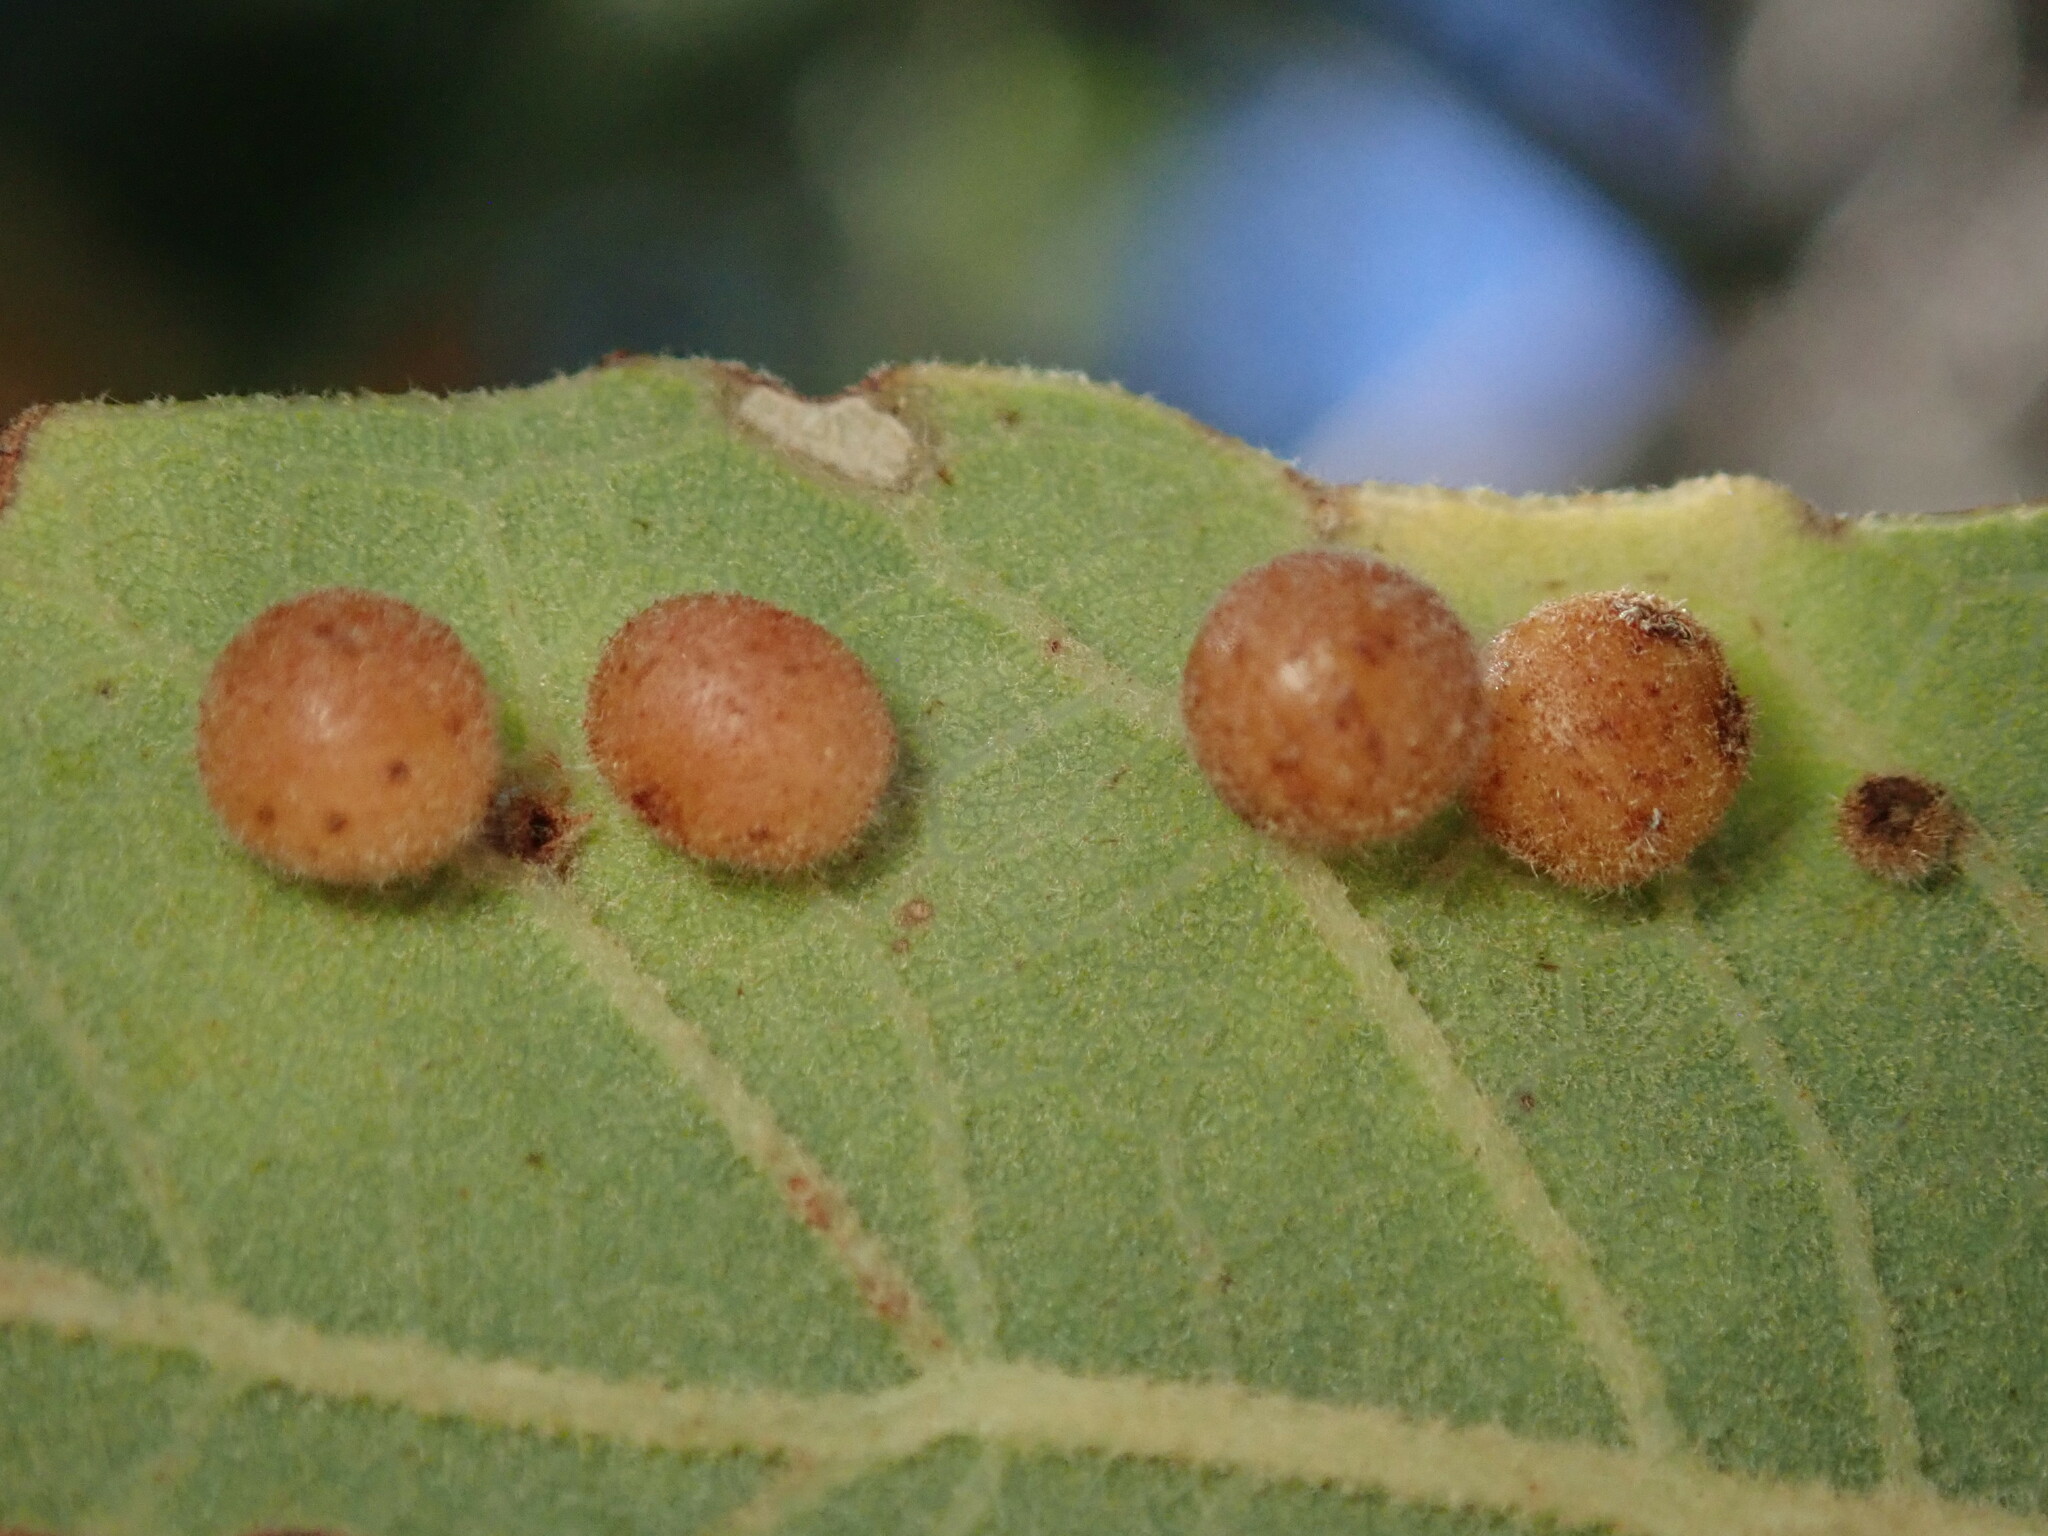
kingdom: Animalia
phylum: Arthropoda
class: Insecta
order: Hymenoptera
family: Cynipidae
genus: Biorhiza
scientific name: Biorhiza
